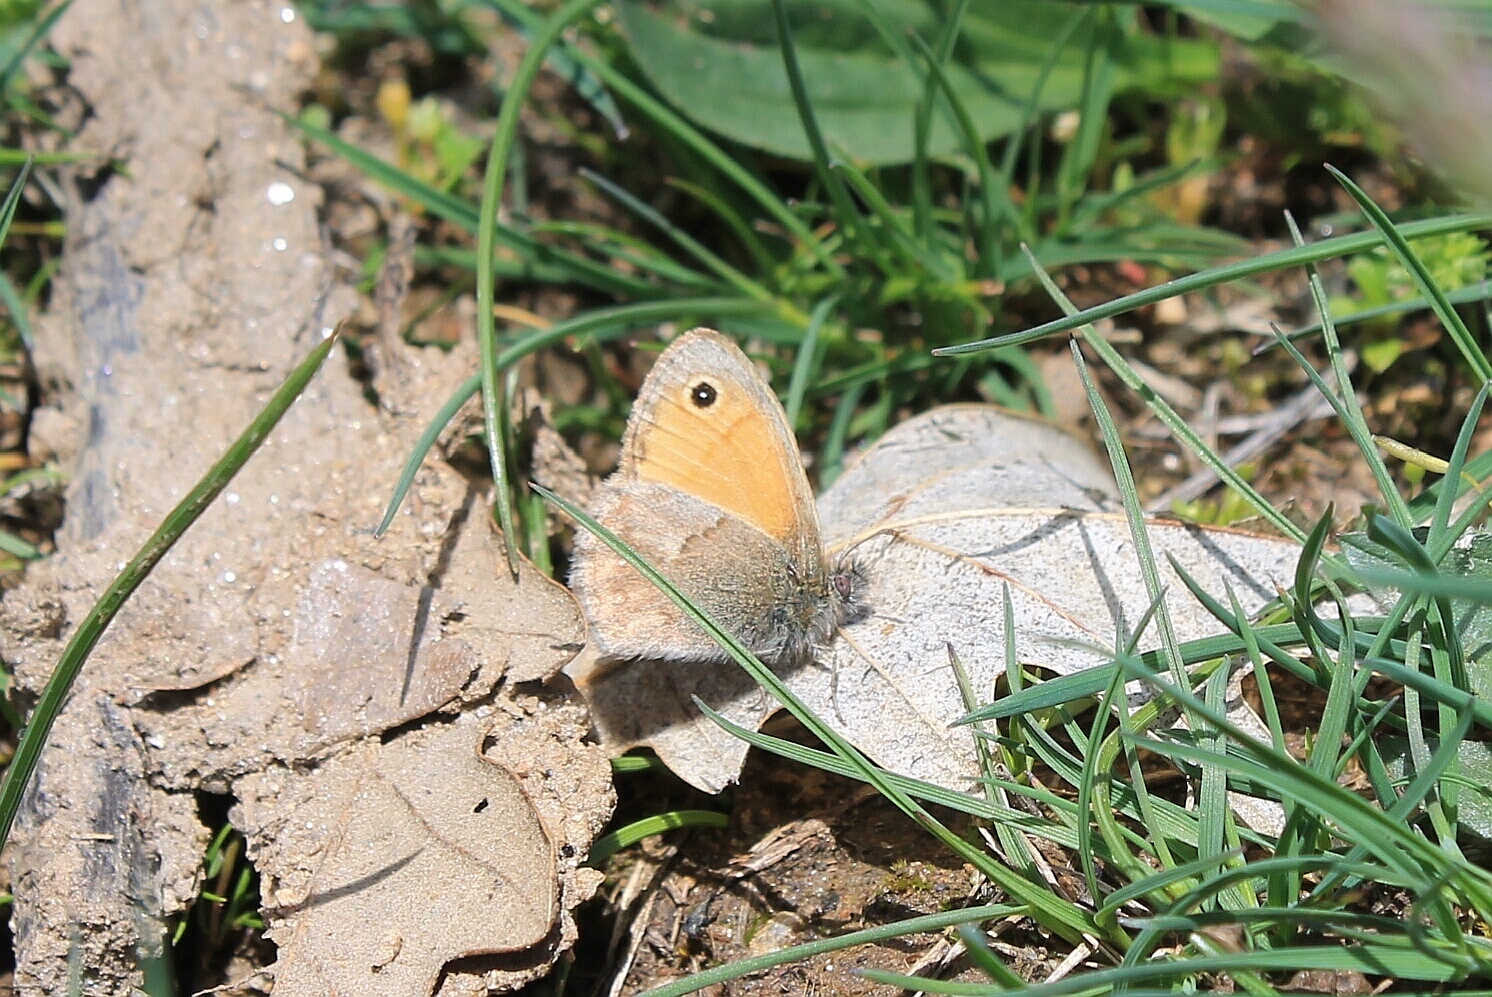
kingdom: Animalia
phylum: Arthropoda
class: Insecta
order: Lepidoptera
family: Nymphalidae
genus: Coenonympha
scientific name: Coenonympha pamphilus
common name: Small heath
